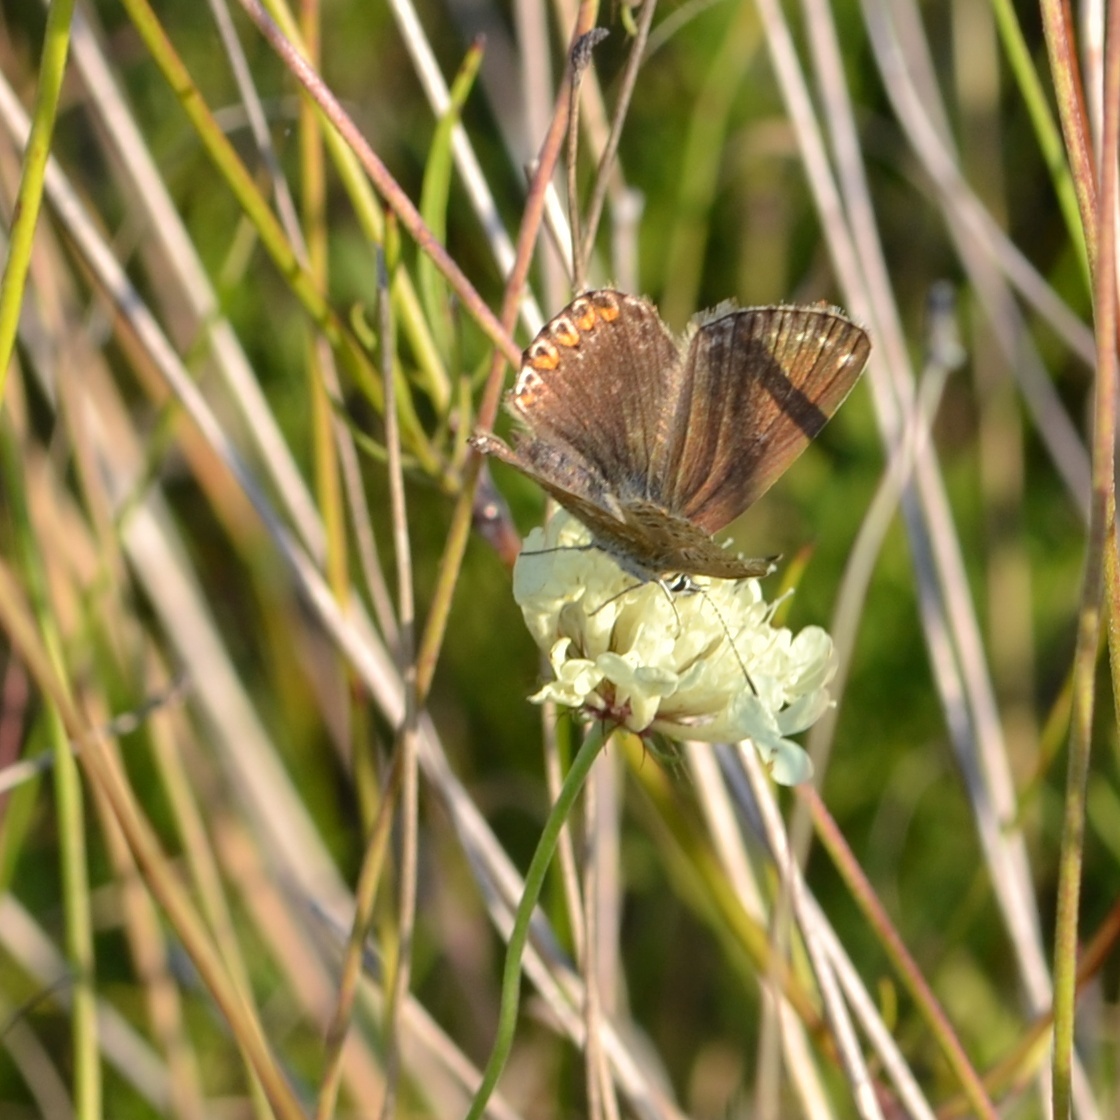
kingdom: Animalia
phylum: Arthropoda
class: Insecta
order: Lepidoptera
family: Lycaenidae
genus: Lysandra
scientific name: Lysandra coridon
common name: Chalkhill blue
